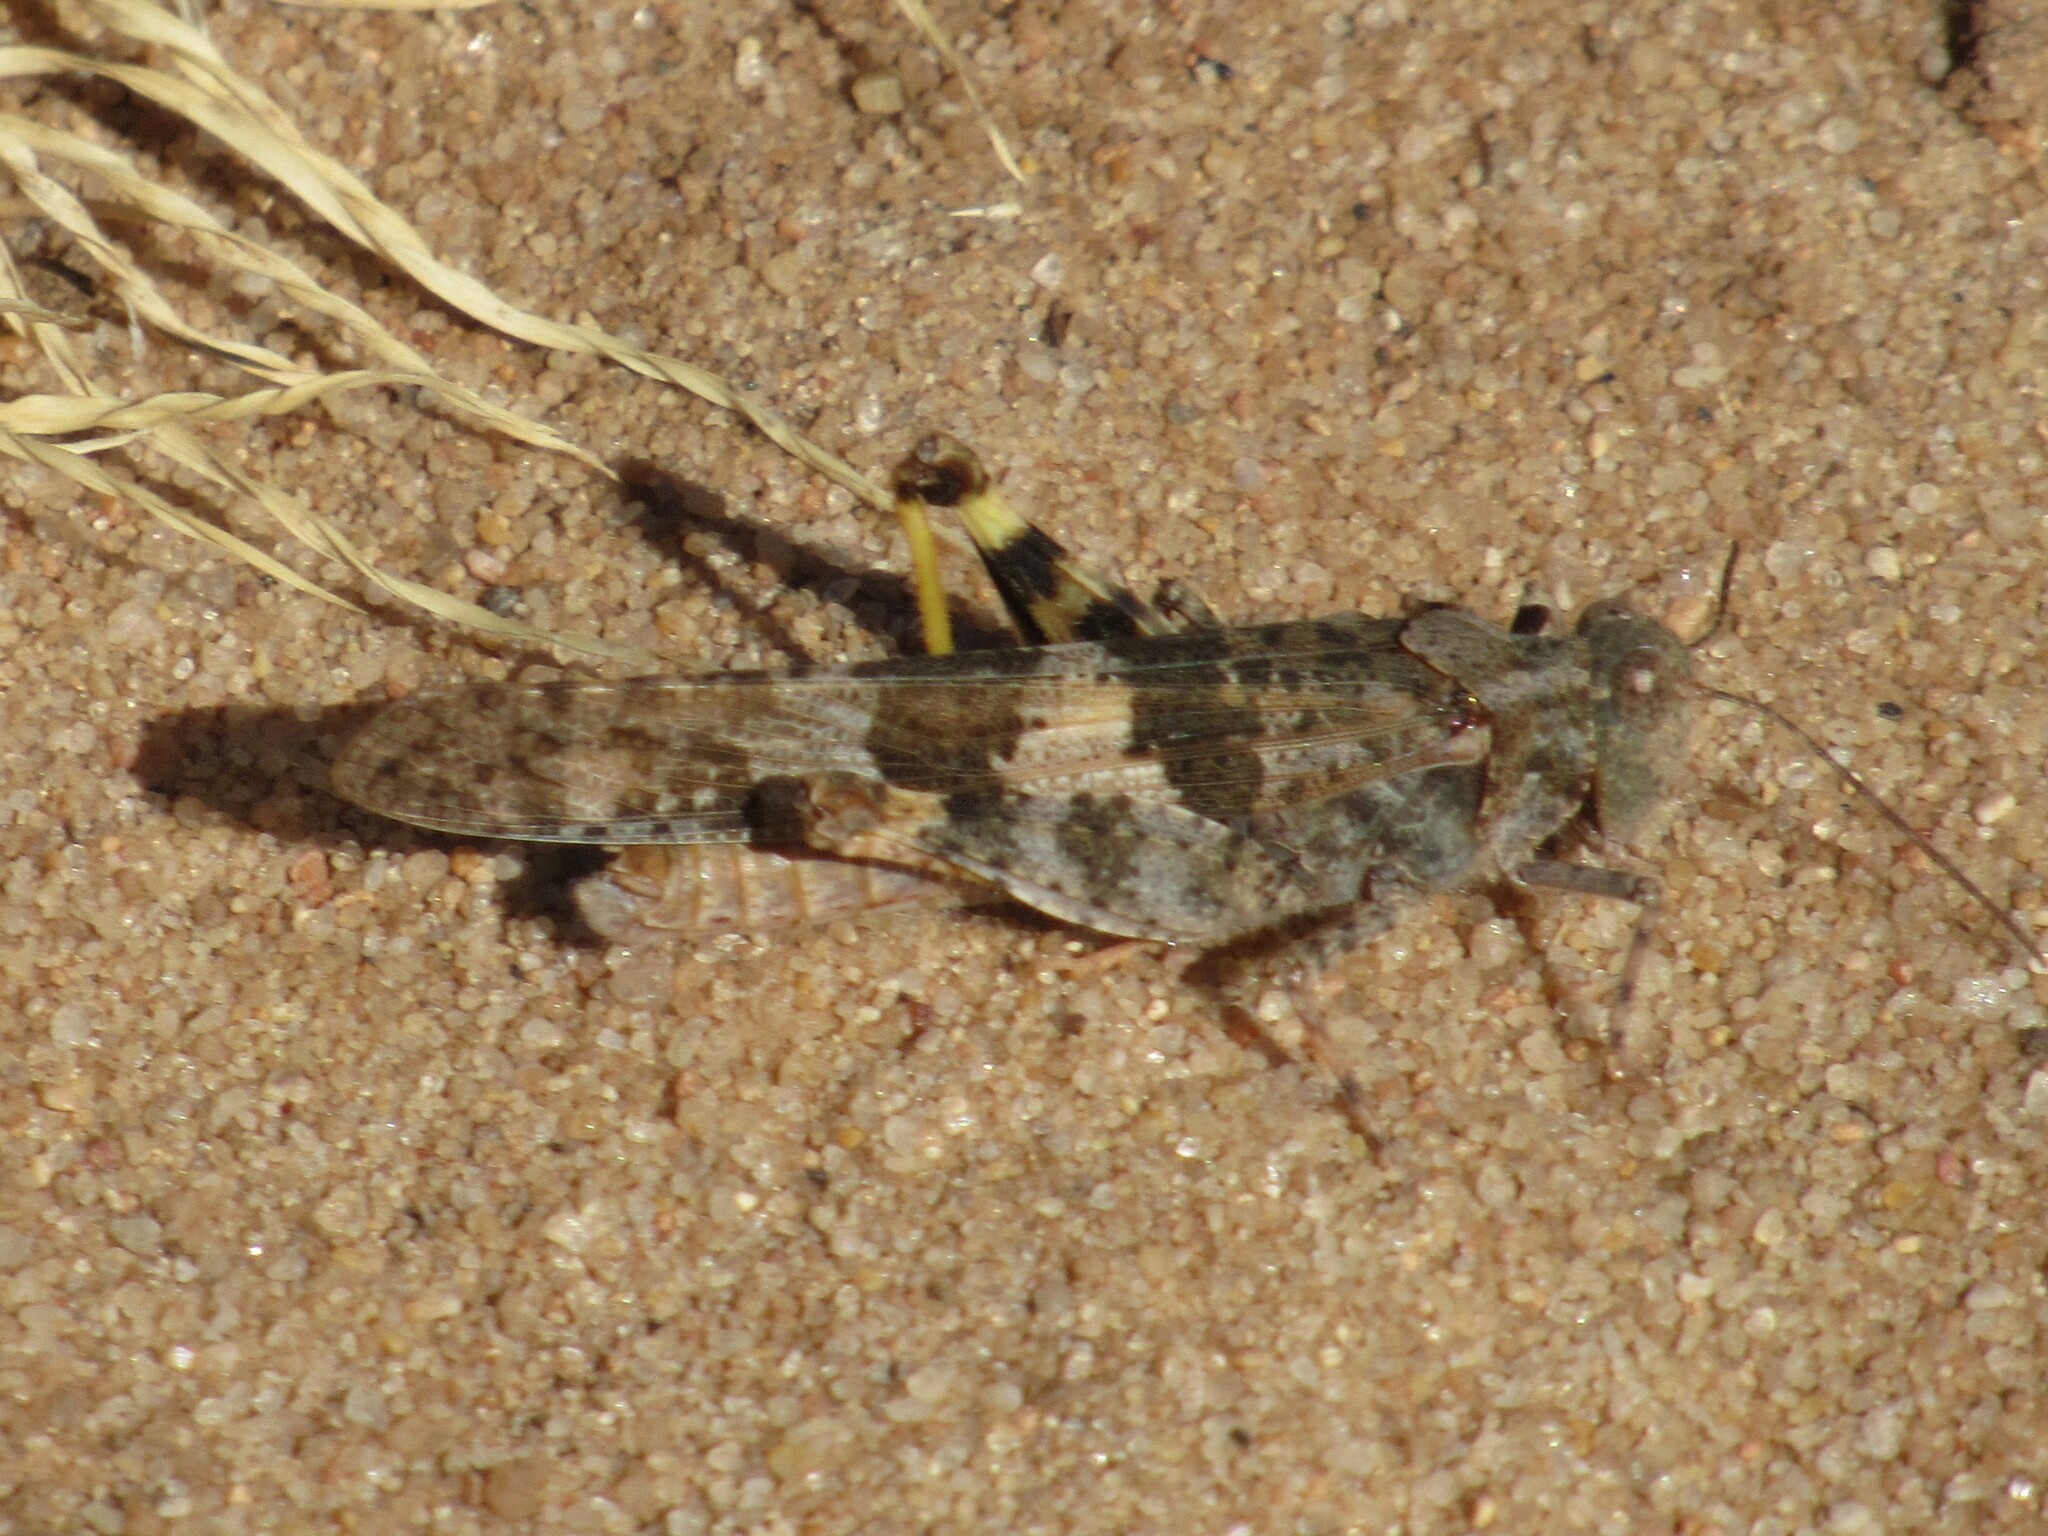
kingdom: Animalia
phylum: Arthropoda
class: Insecta
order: Orthoptera
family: Acrididae
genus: Trimerotropis
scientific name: Trimerotropis pallidipennis
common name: Pallid-winged grasshopper
